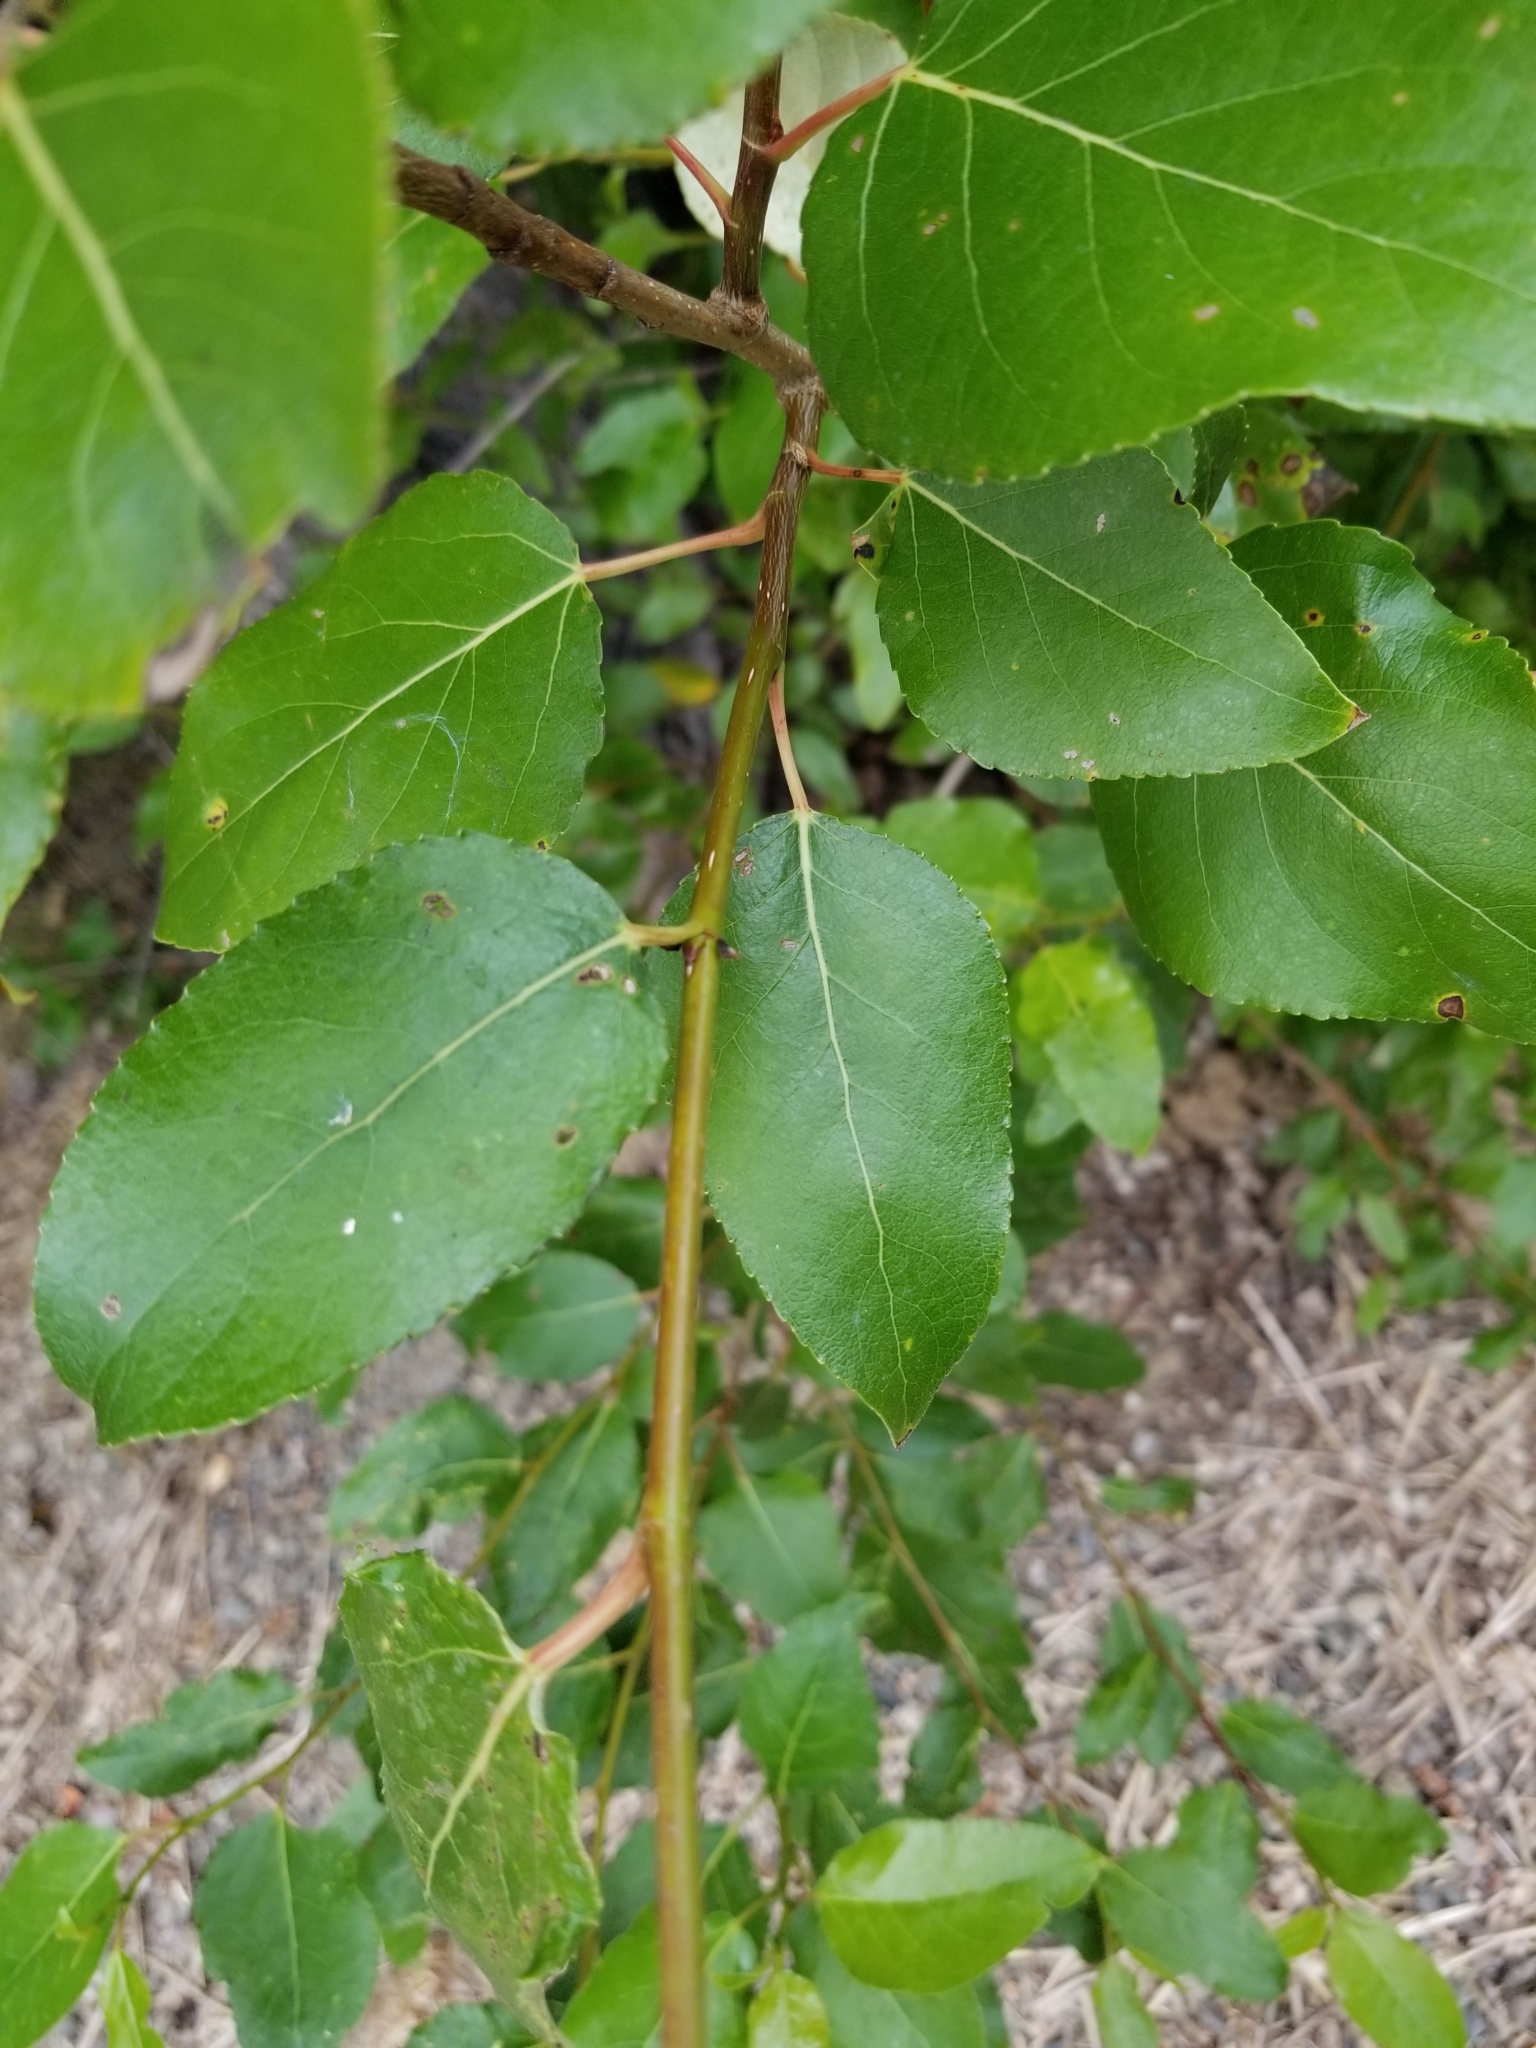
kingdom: Plantae
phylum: Tracheophyta
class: Magnoliopsida
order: Malpighiales
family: Salicaceae
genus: Populus
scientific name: Populus trichocarpa
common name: Black cottonwood
